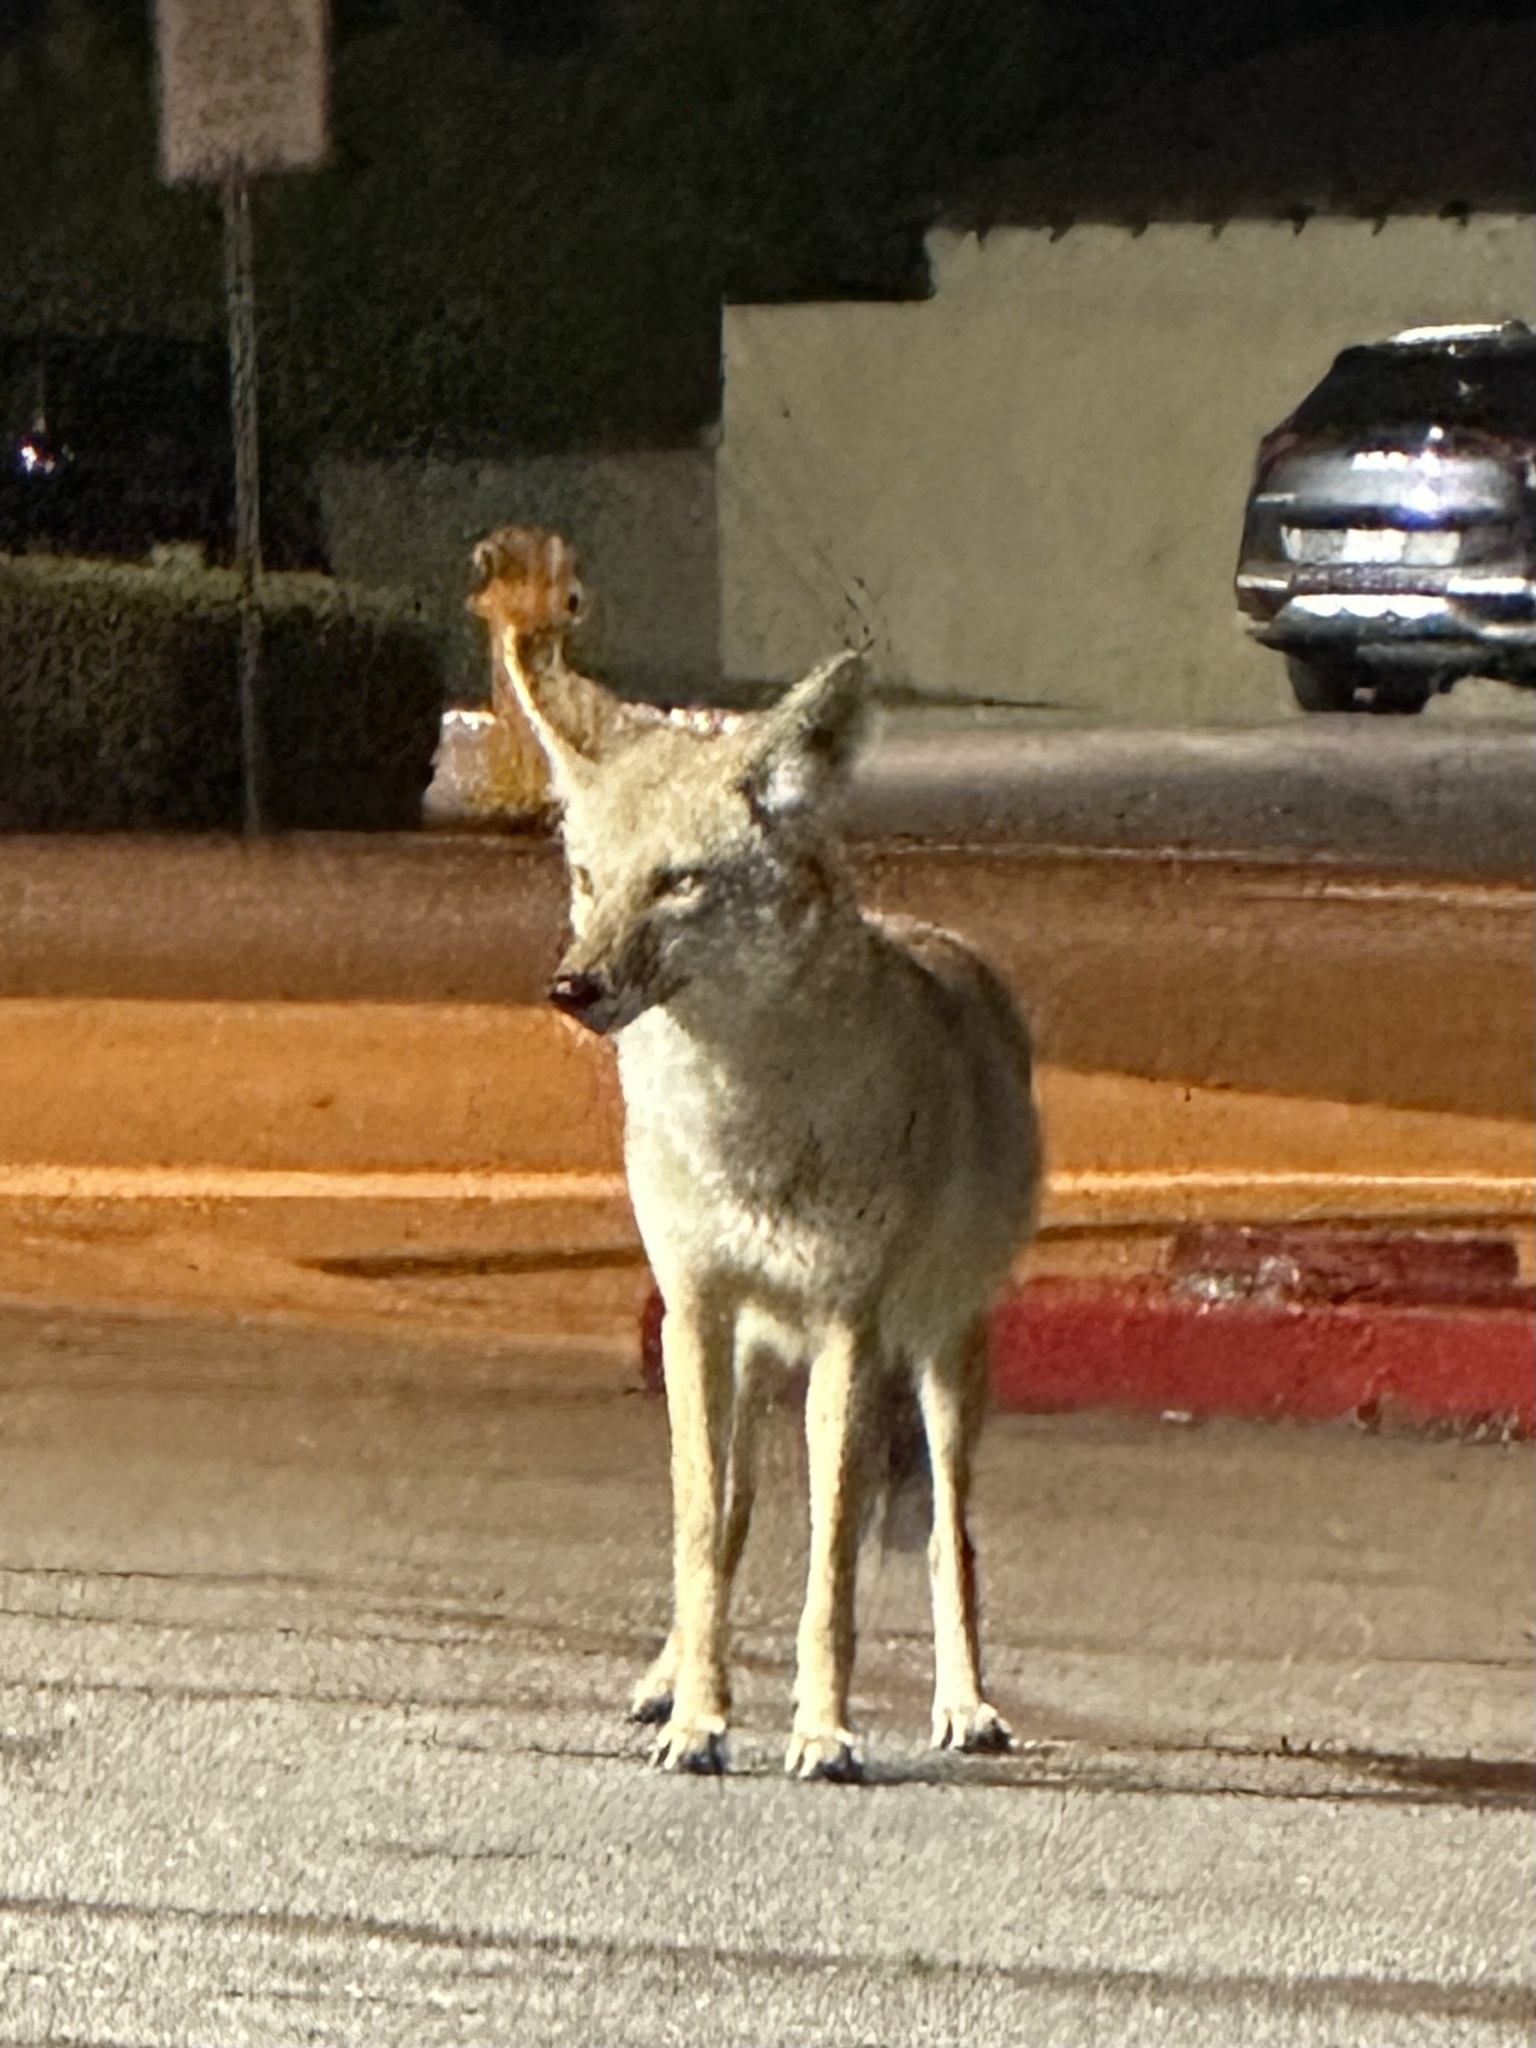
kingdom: Animalia
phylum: Chordata
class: Mammalia
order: Carnivora
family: Canidae
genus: Canis
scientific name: Canis latrans
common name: Coyote
